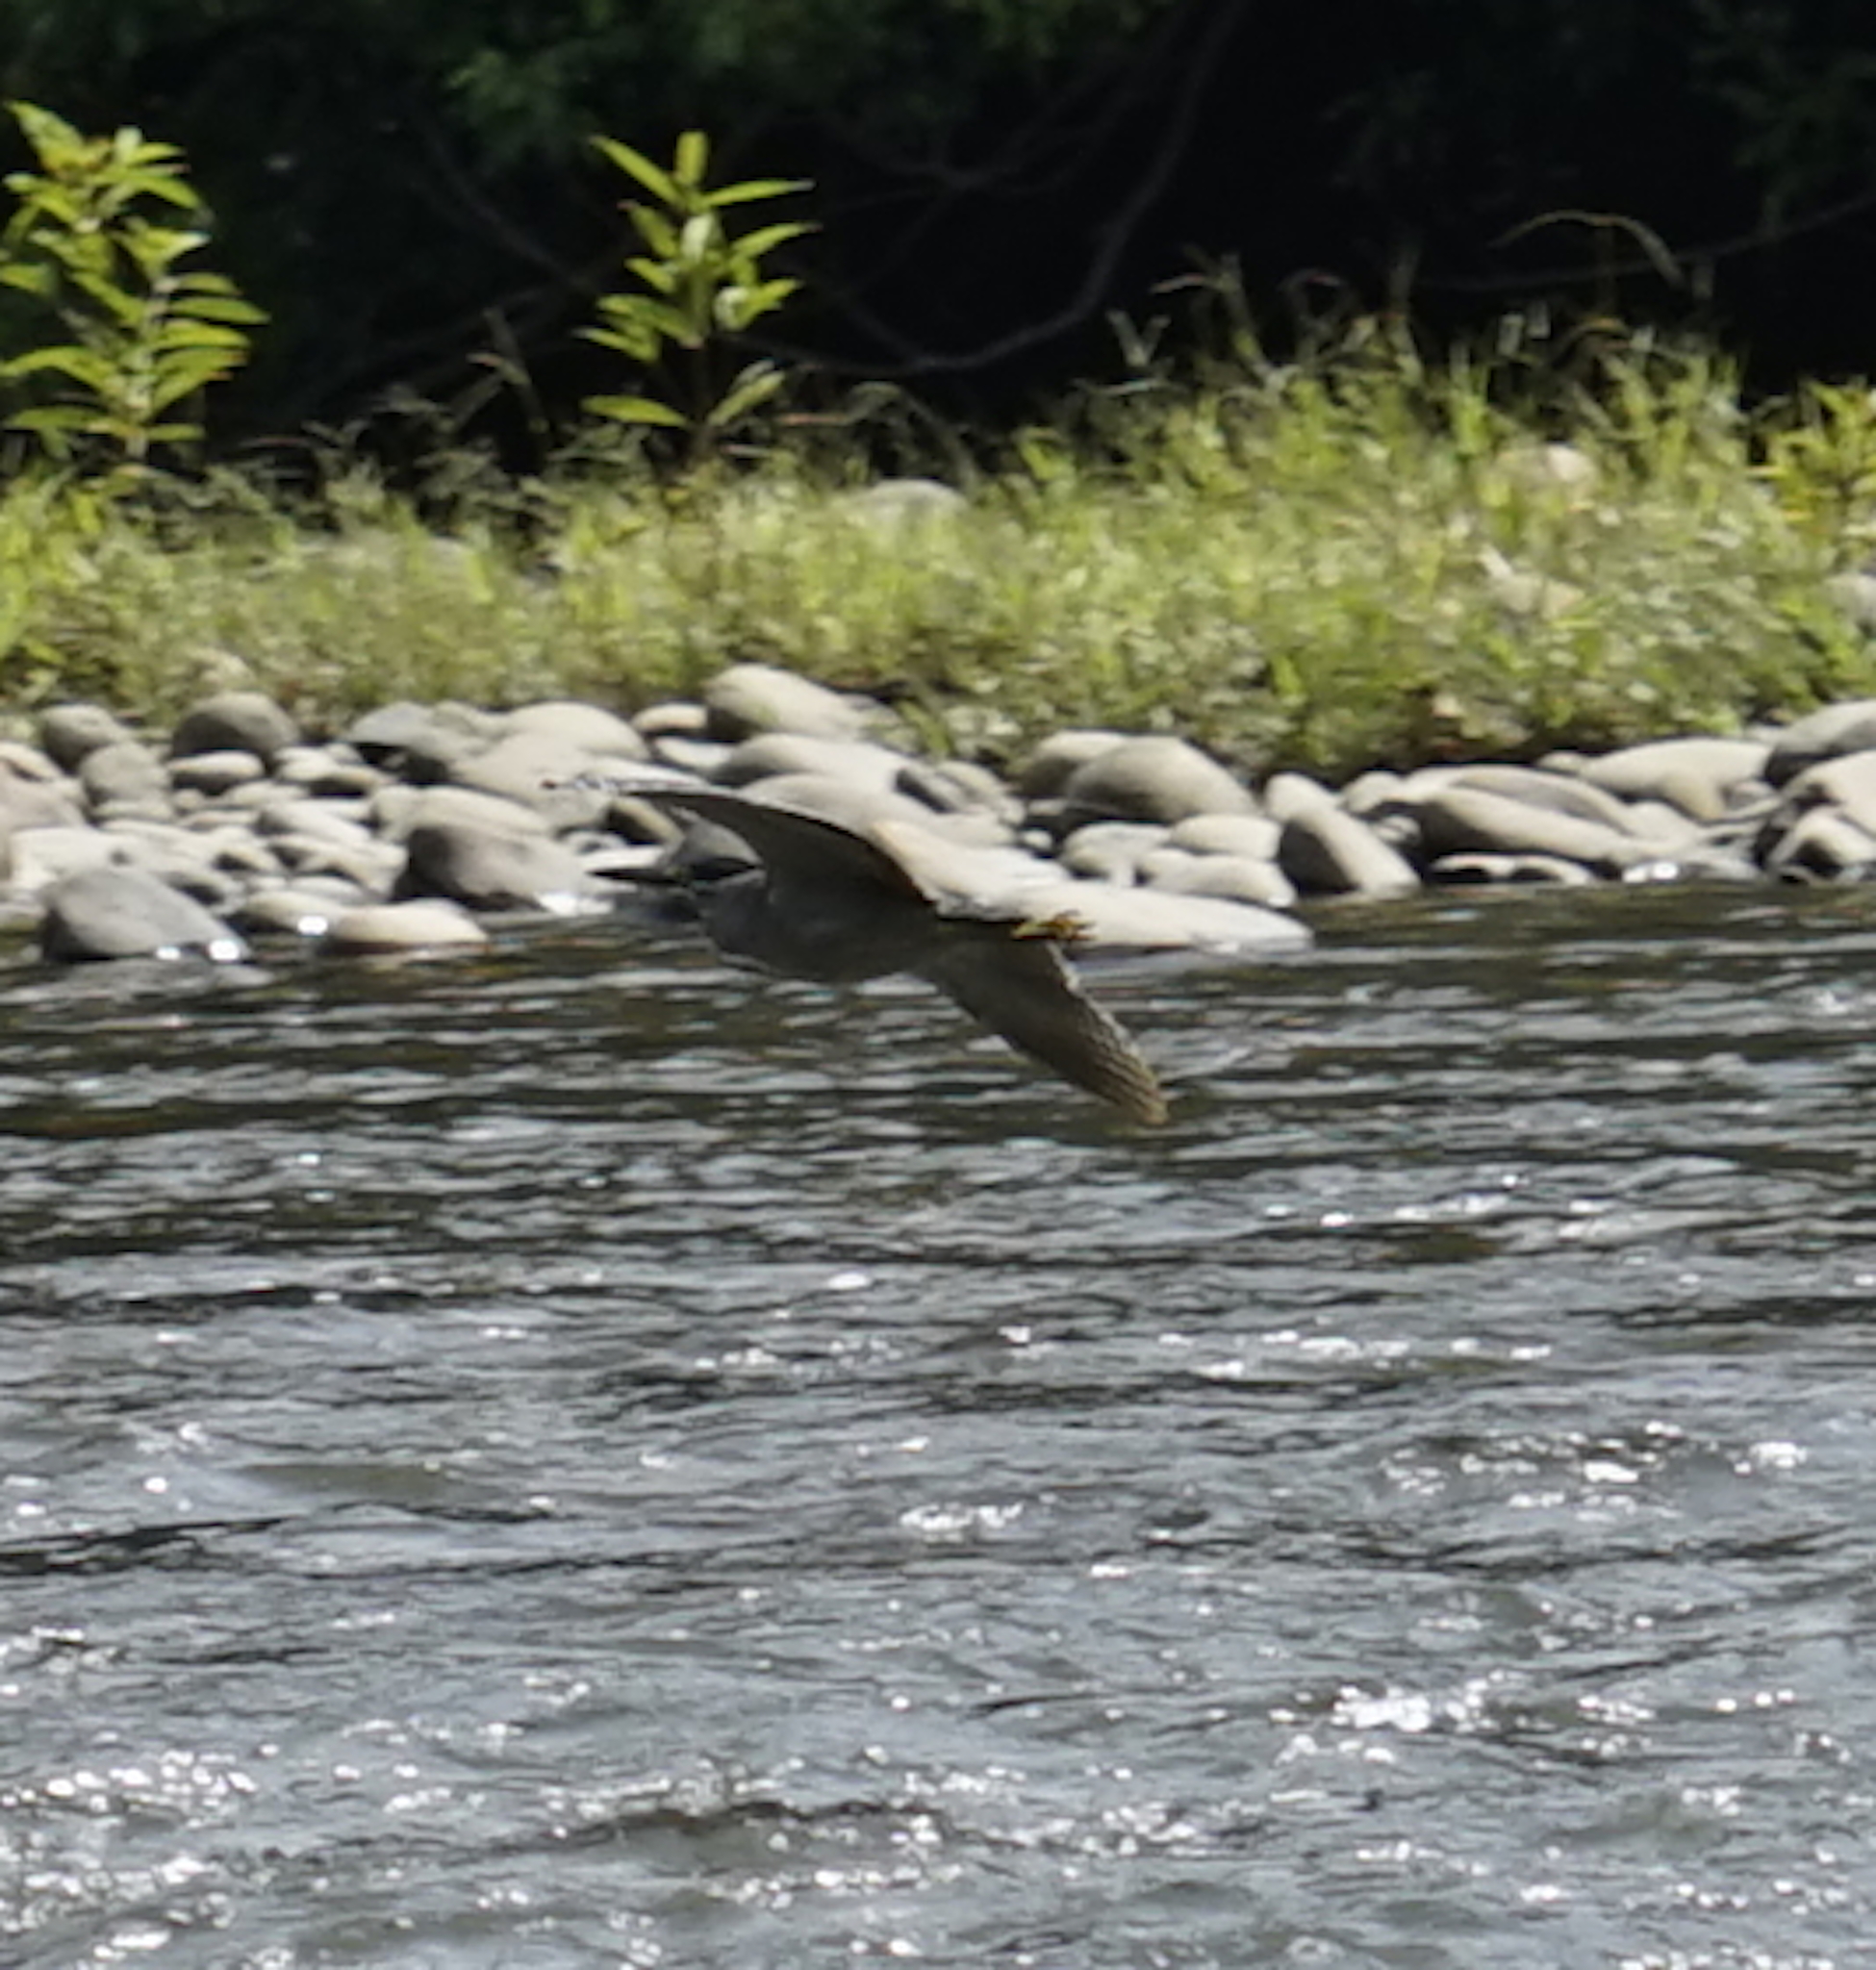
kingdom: Animalia
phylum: Chordata
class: Aves
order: Pelecaniformes
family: Ardeidae
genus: Butorides
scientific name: Butorides striata
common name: Striated heron
